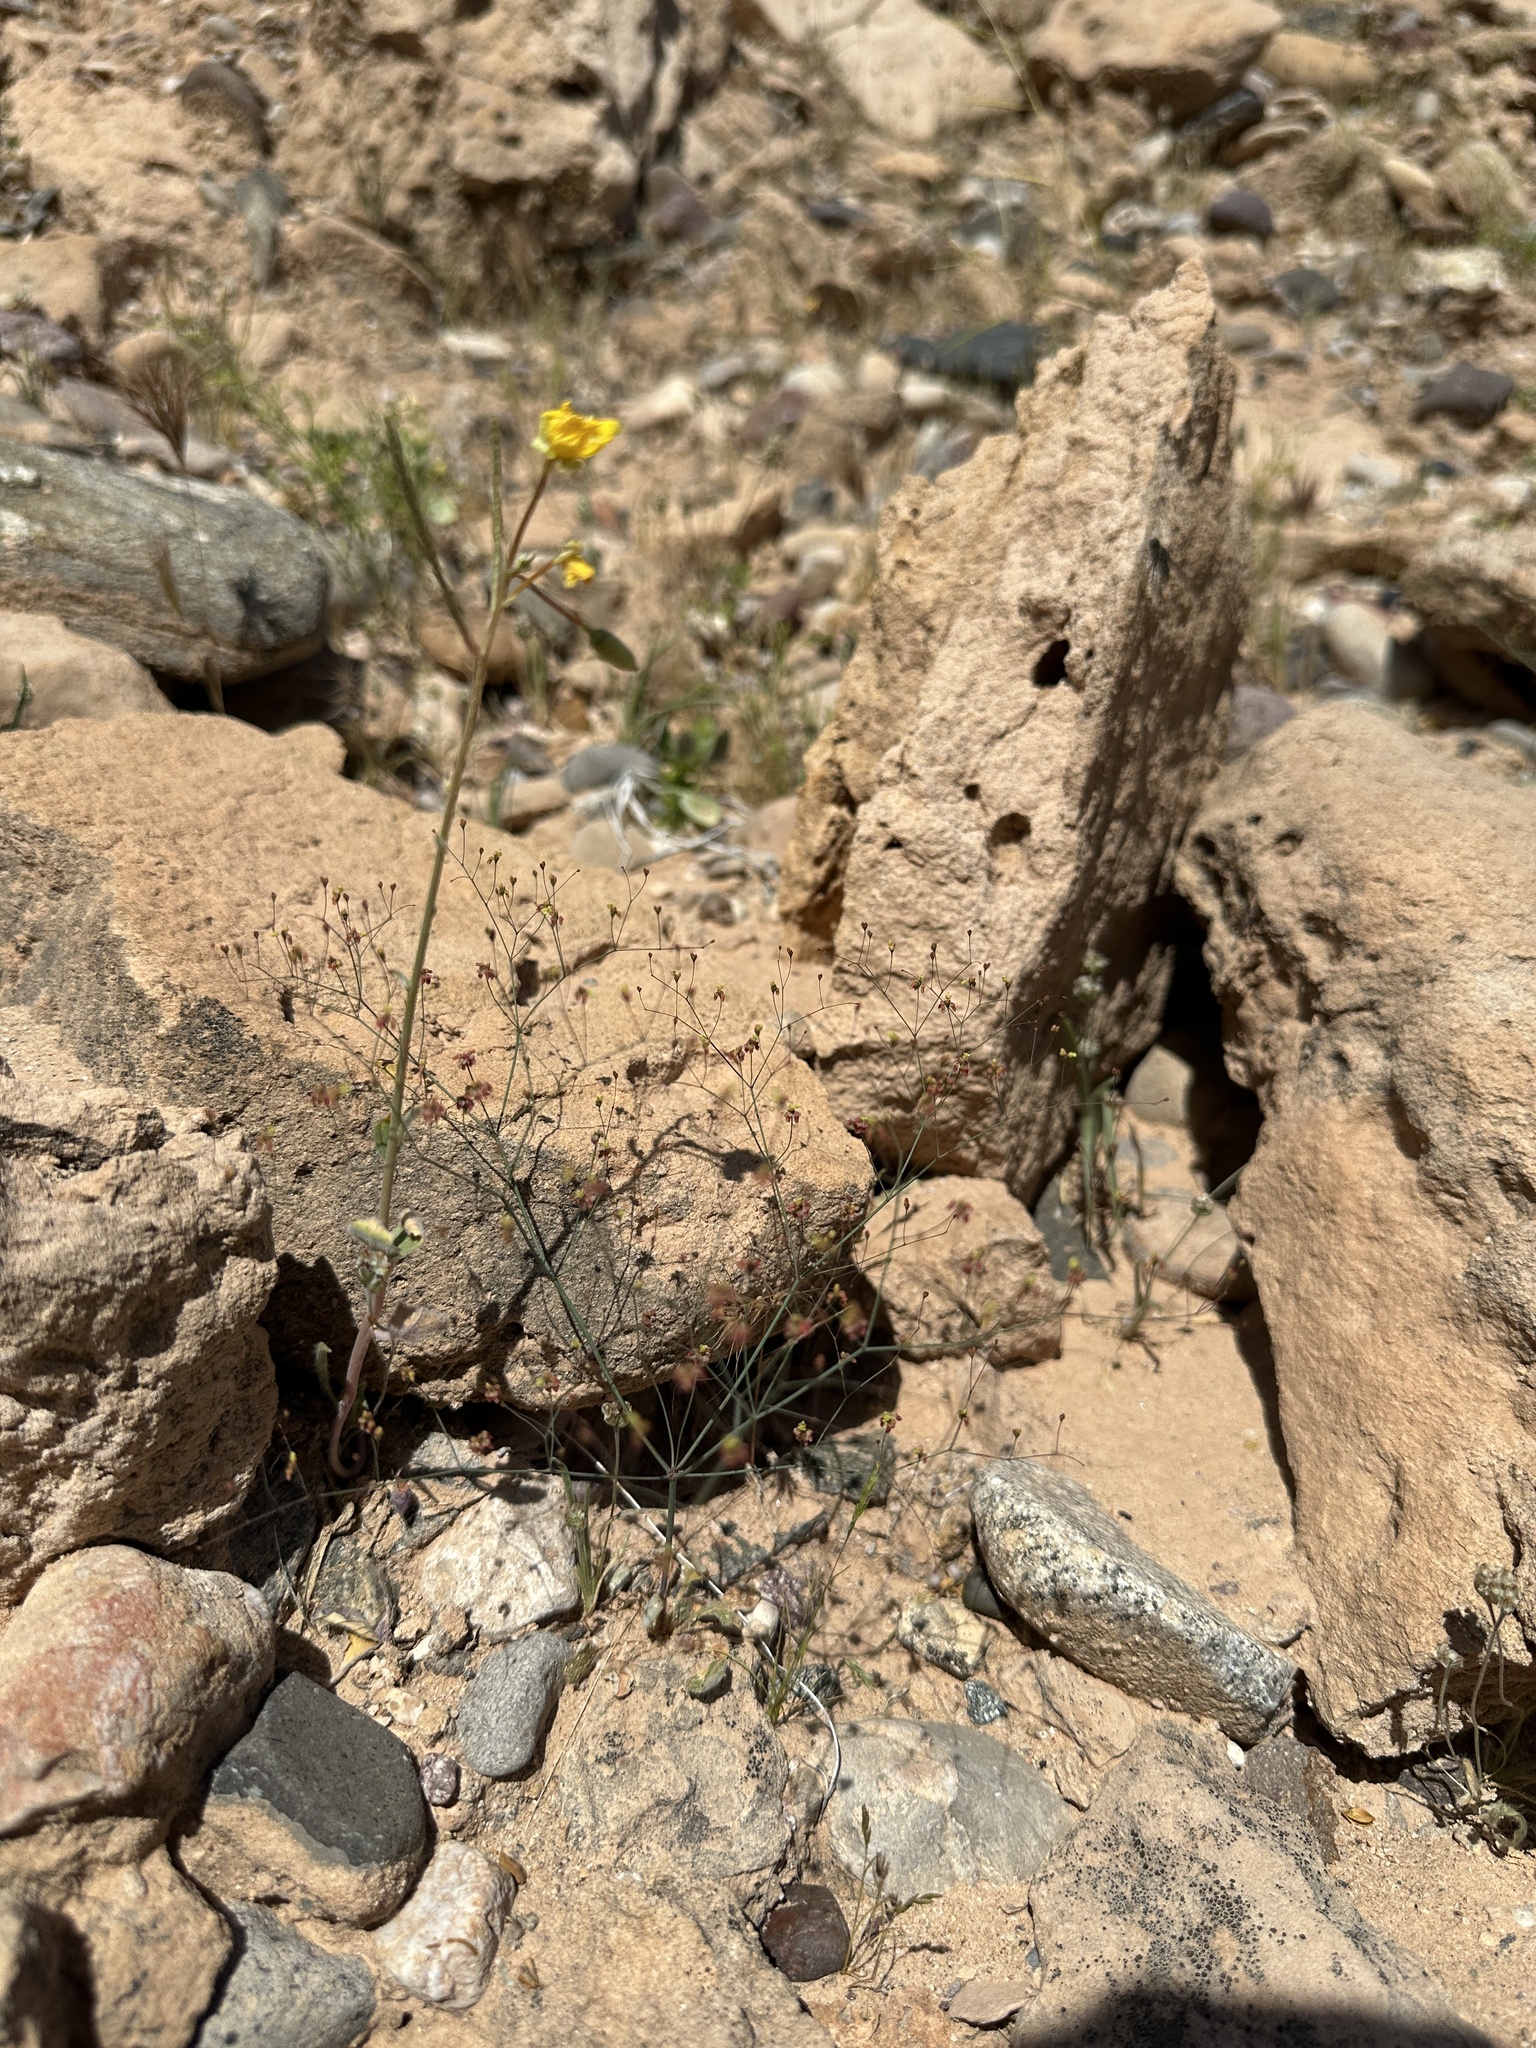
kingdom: Plantae
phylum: Tracheophyta
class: Magnoliopsida
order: Caryophyllales
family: Polygonaceae
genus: Eriogonum
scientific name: Eriogonum thomasii
